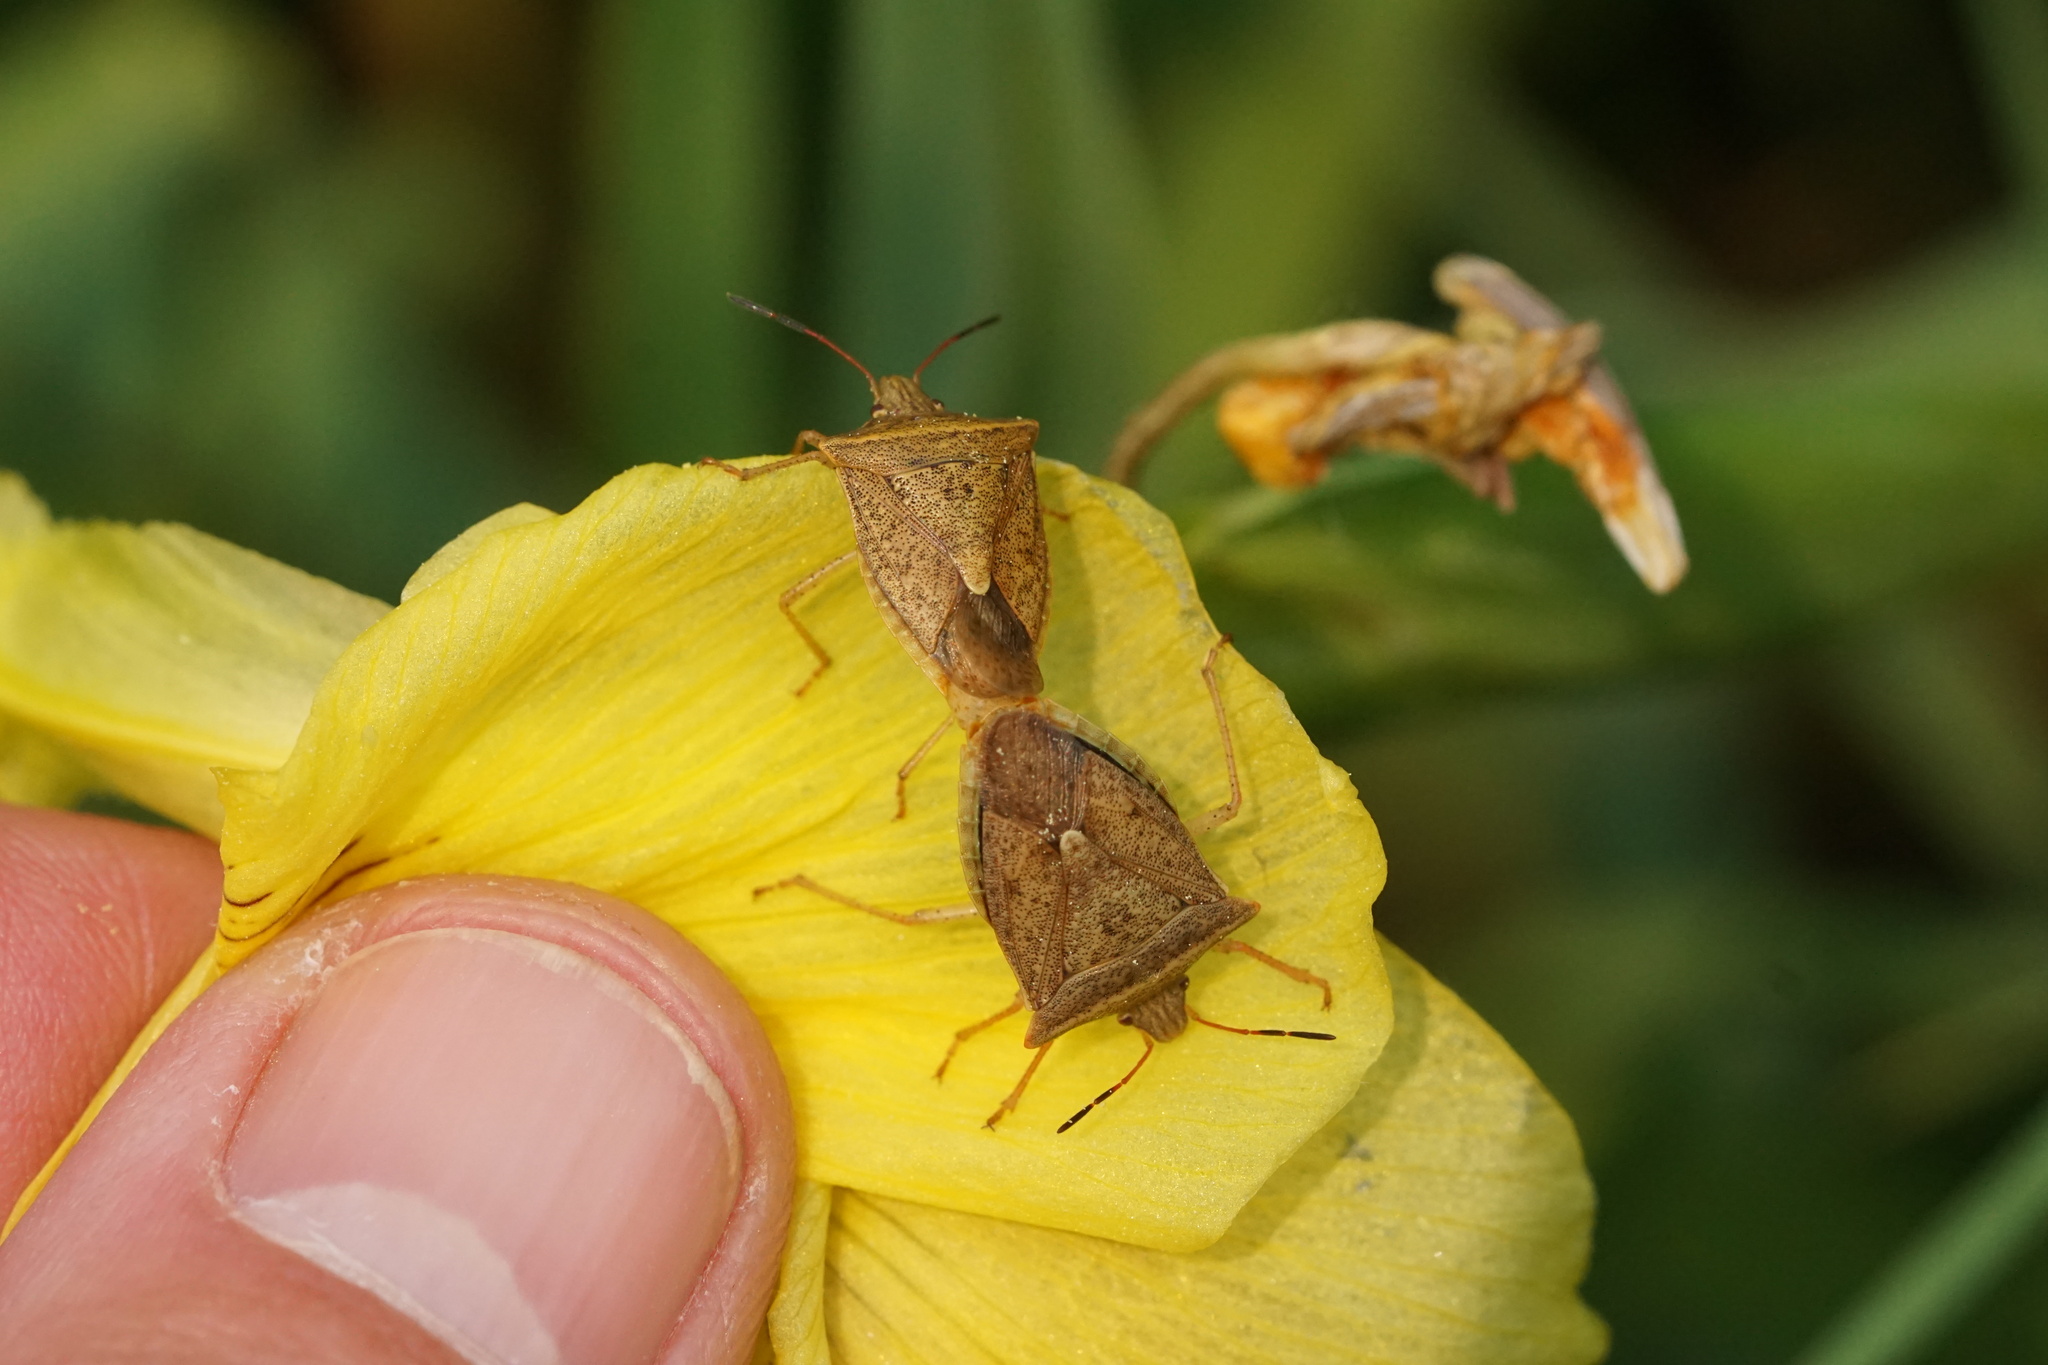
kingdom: Animalia
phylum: Arthropoda
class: Insecta
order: Hemiptera
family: Pentatomidae
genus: Euschistus
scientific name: Euschistus ictericus
